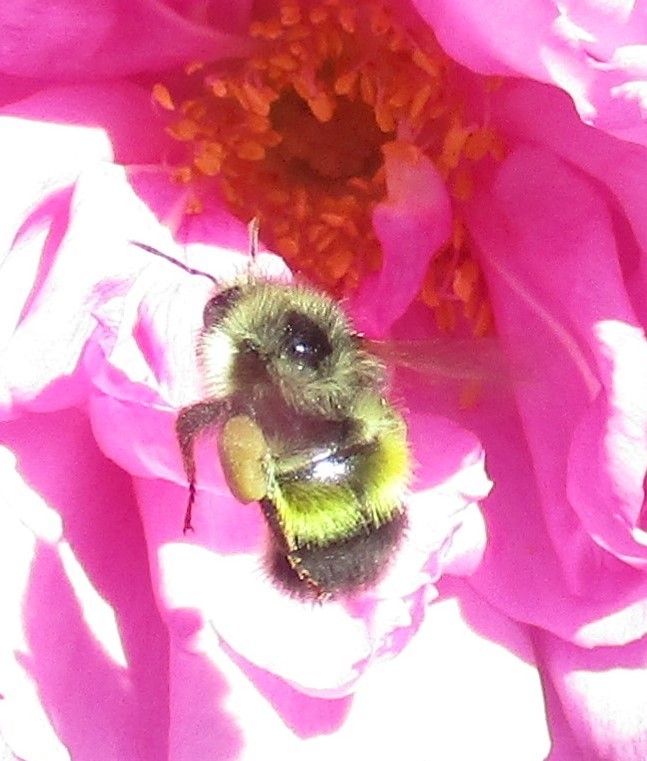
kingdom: Animalia
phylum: Arthropoda
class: Insecta
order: Hymenoptera
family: Apidae
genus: Bombus
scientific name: Bombus flavifrons
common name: Yellow head bumble bee
